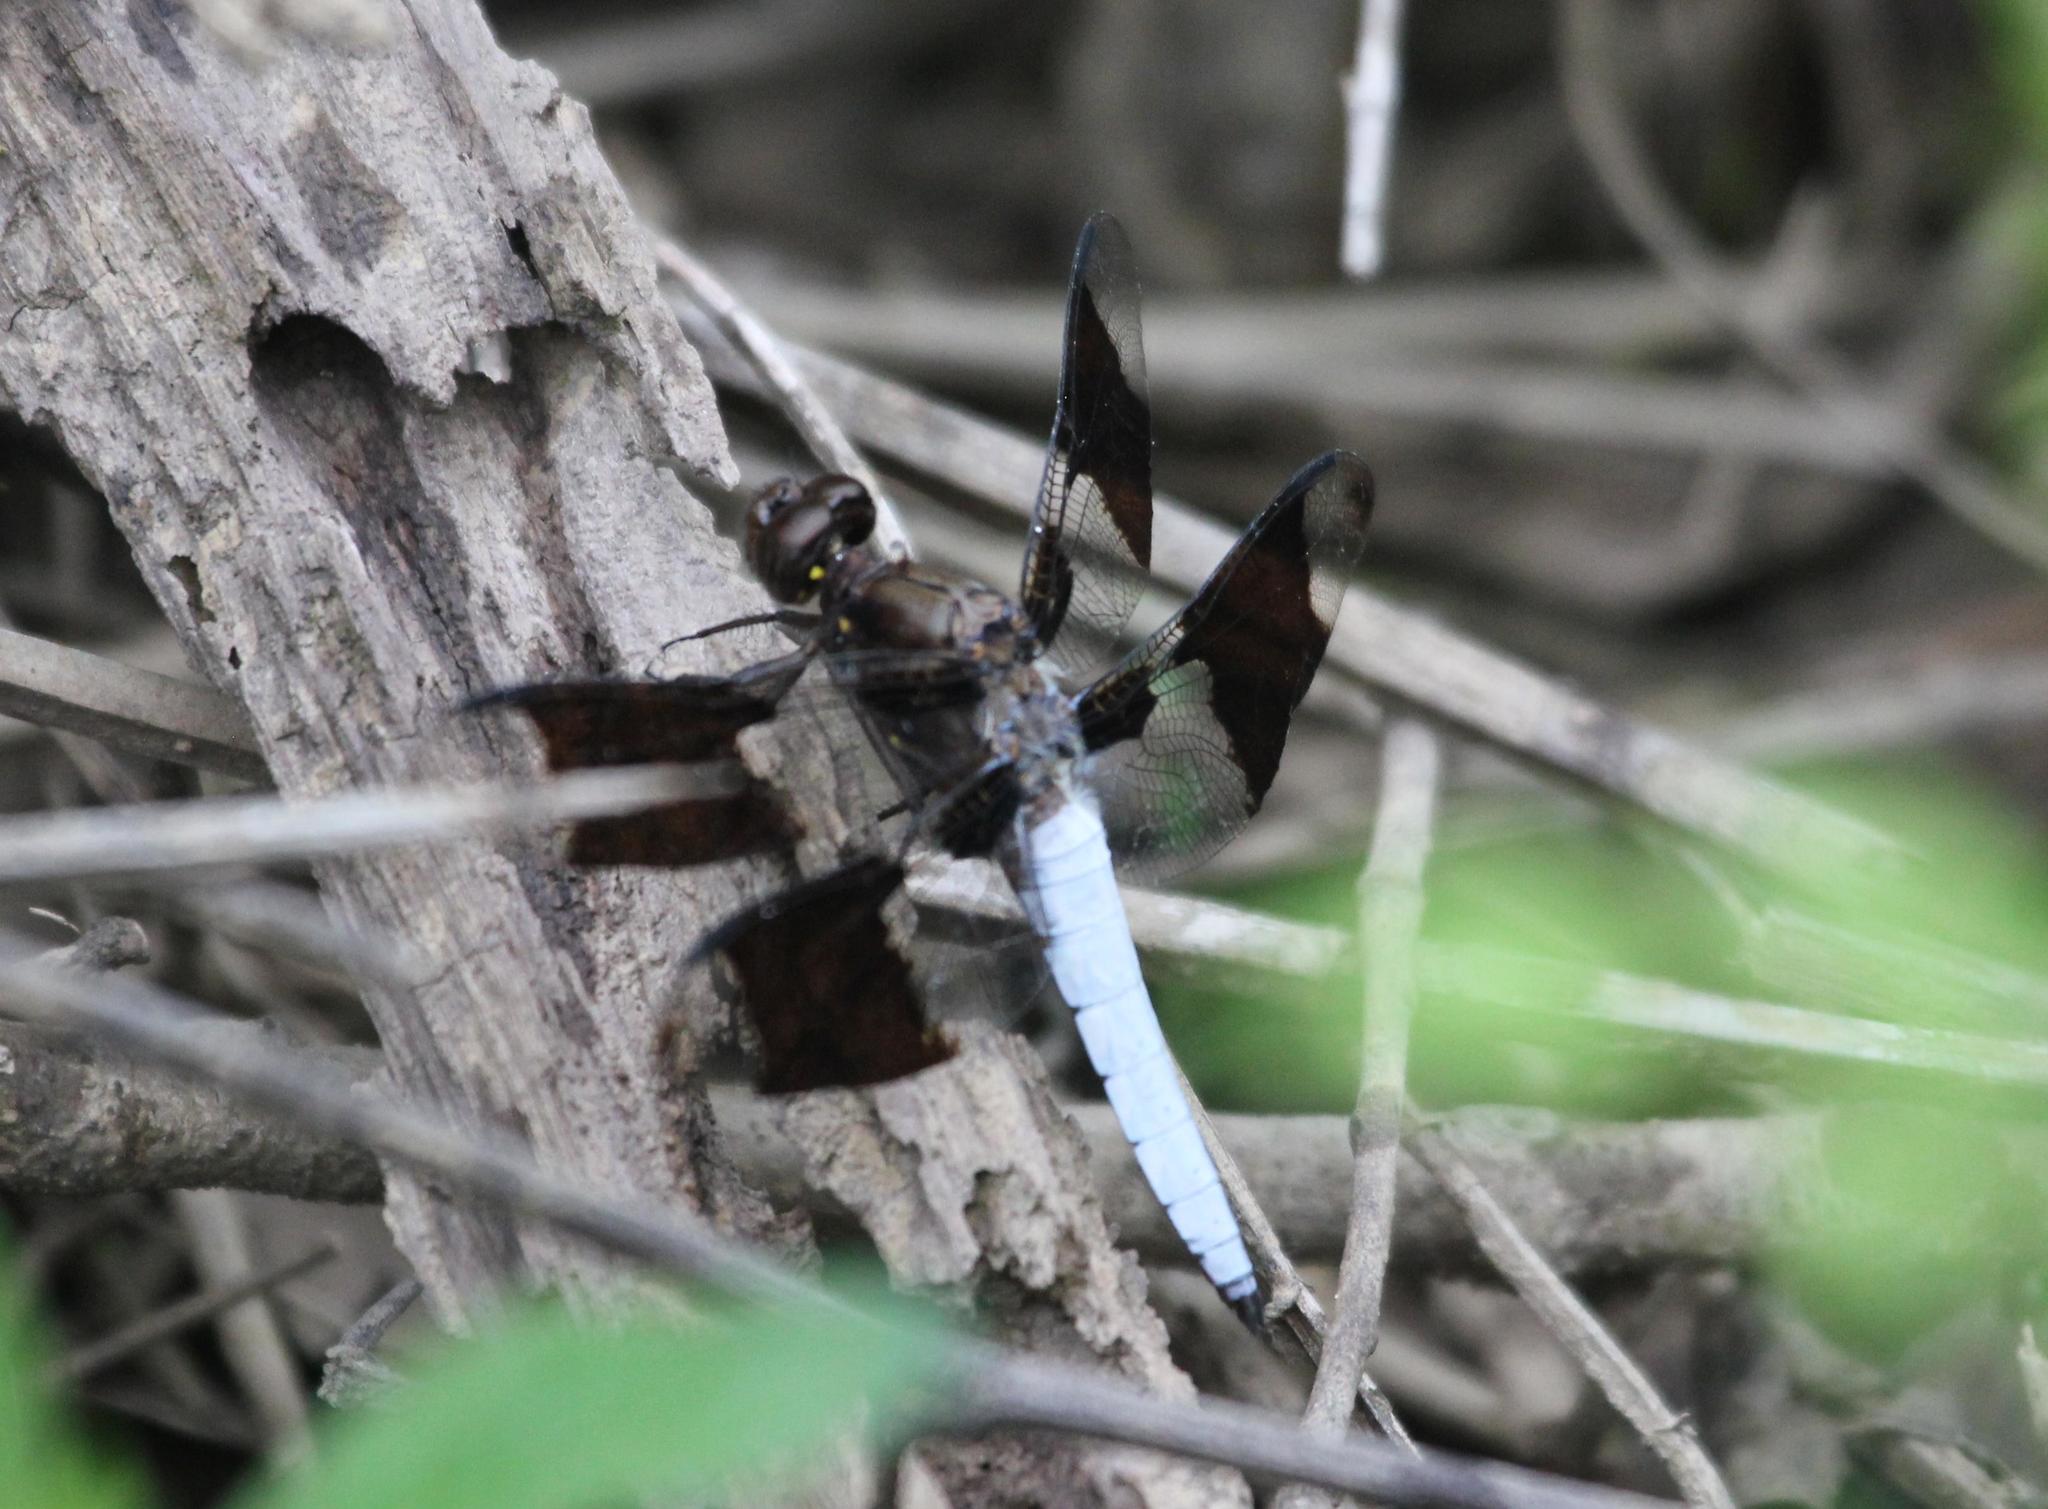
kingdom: Animalia
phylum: Arthropoda
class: Insecta
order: Odonata
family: Libellulidae
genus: Plathemis
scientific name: Plathemis lydia
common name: Common whitetail
